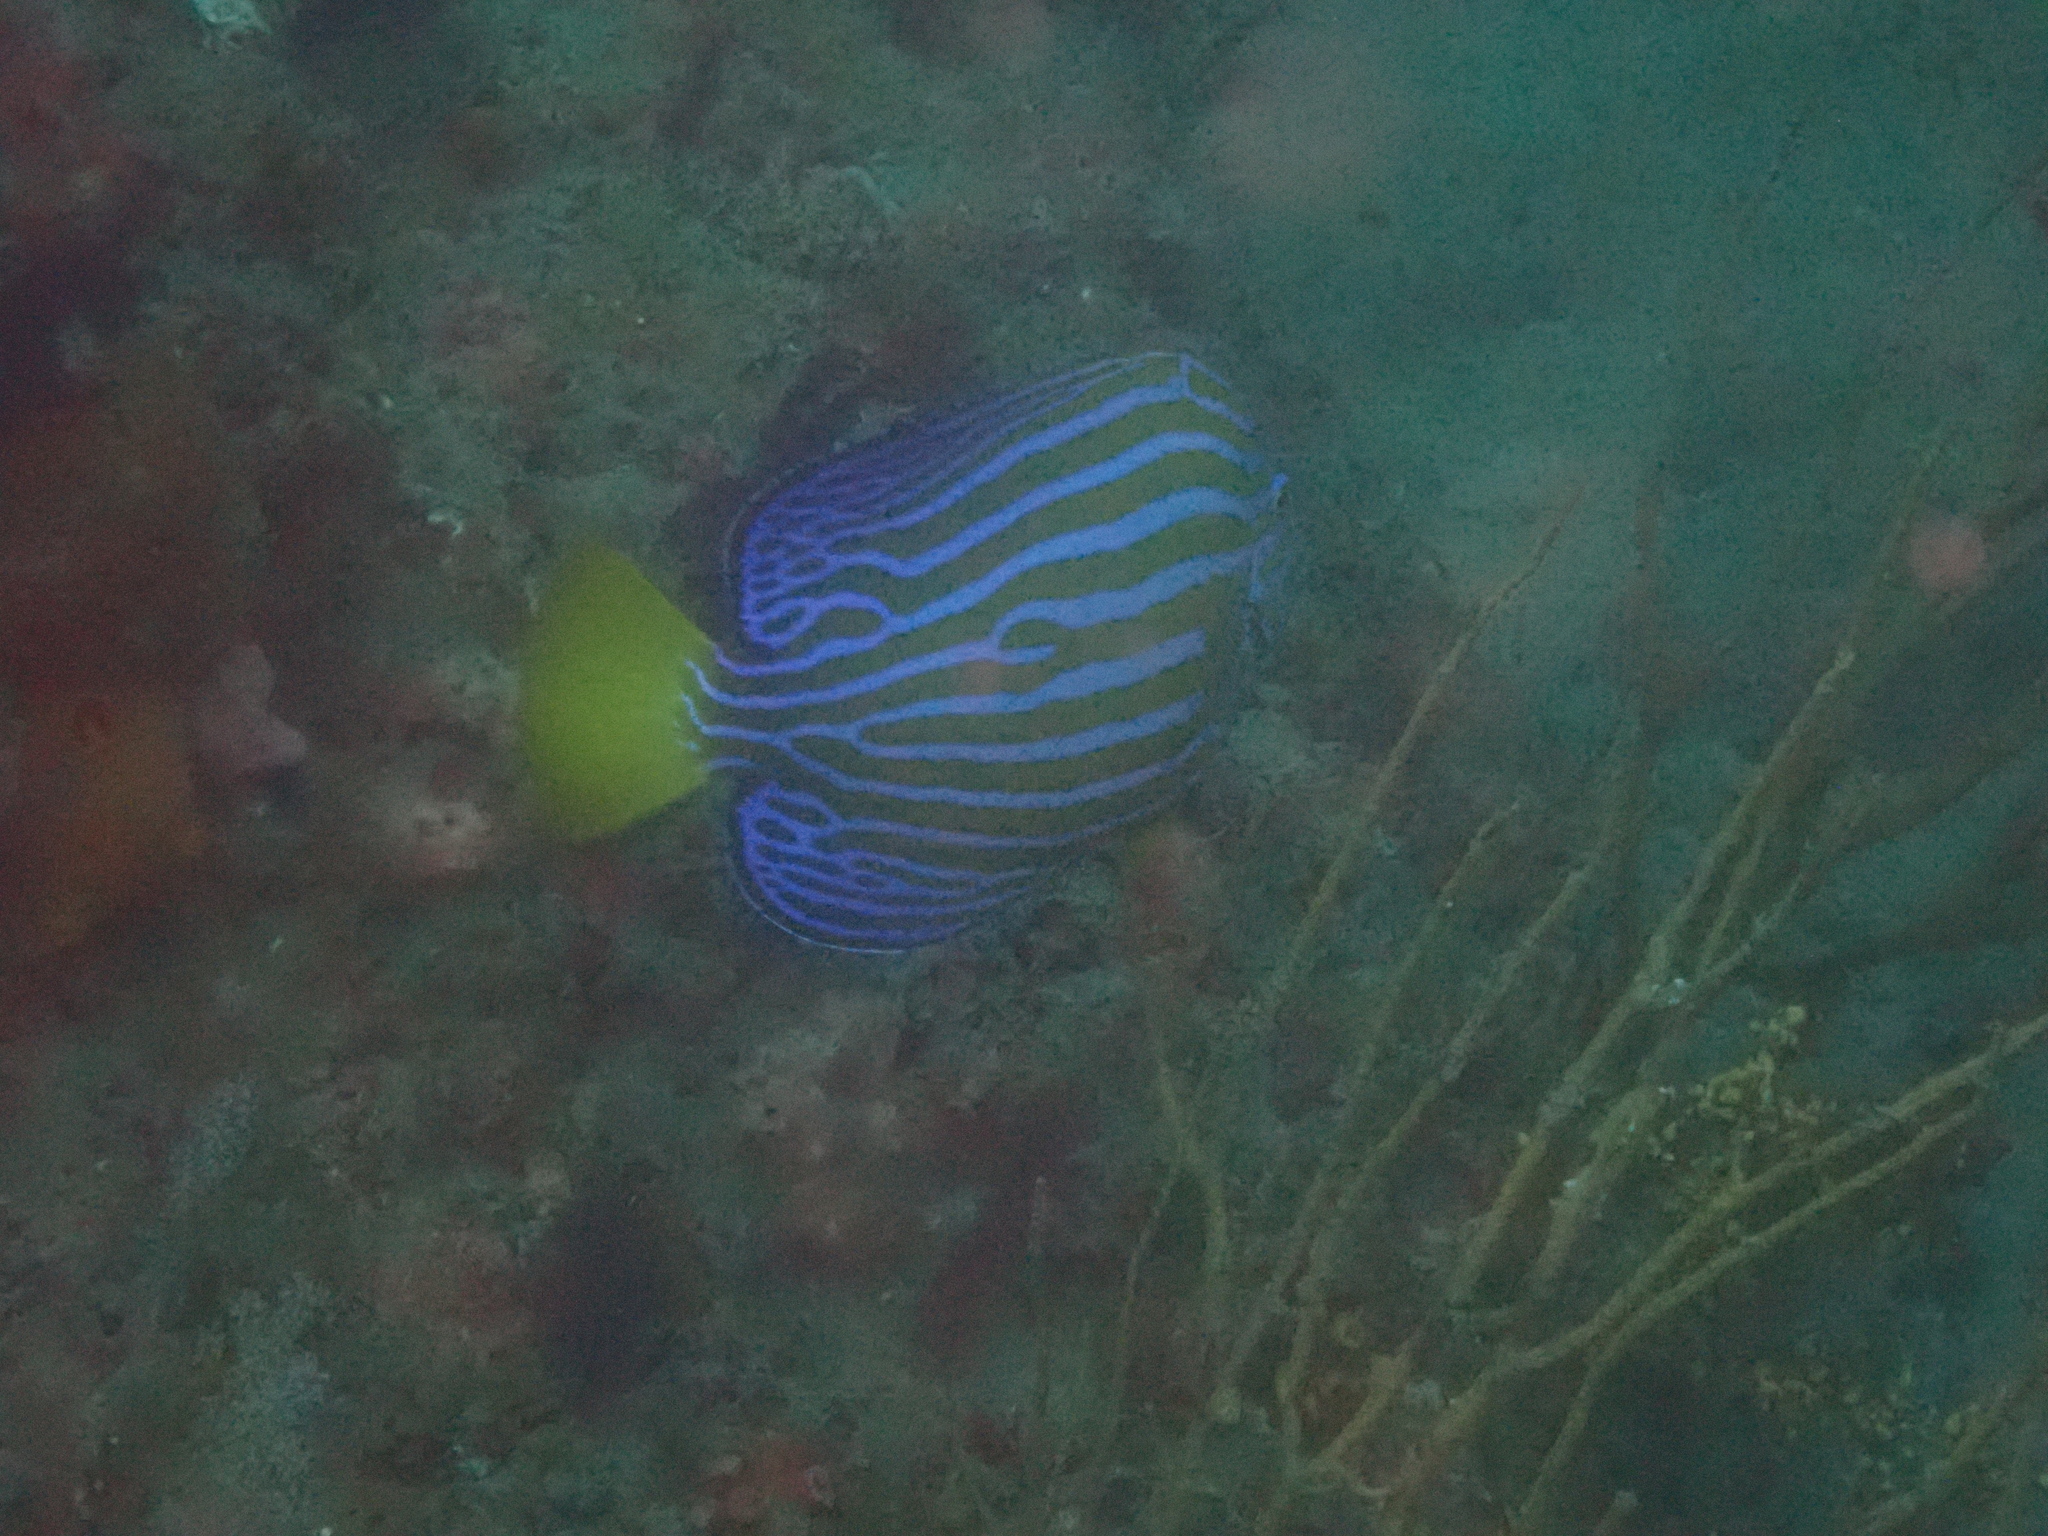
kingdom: Animalia
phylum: Chordata
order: Perciformes
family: Pomacanthidae
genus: Chaetodontoplus
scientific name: Chaetodontoplus septentrionalis
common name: Bluestriped angelfish
